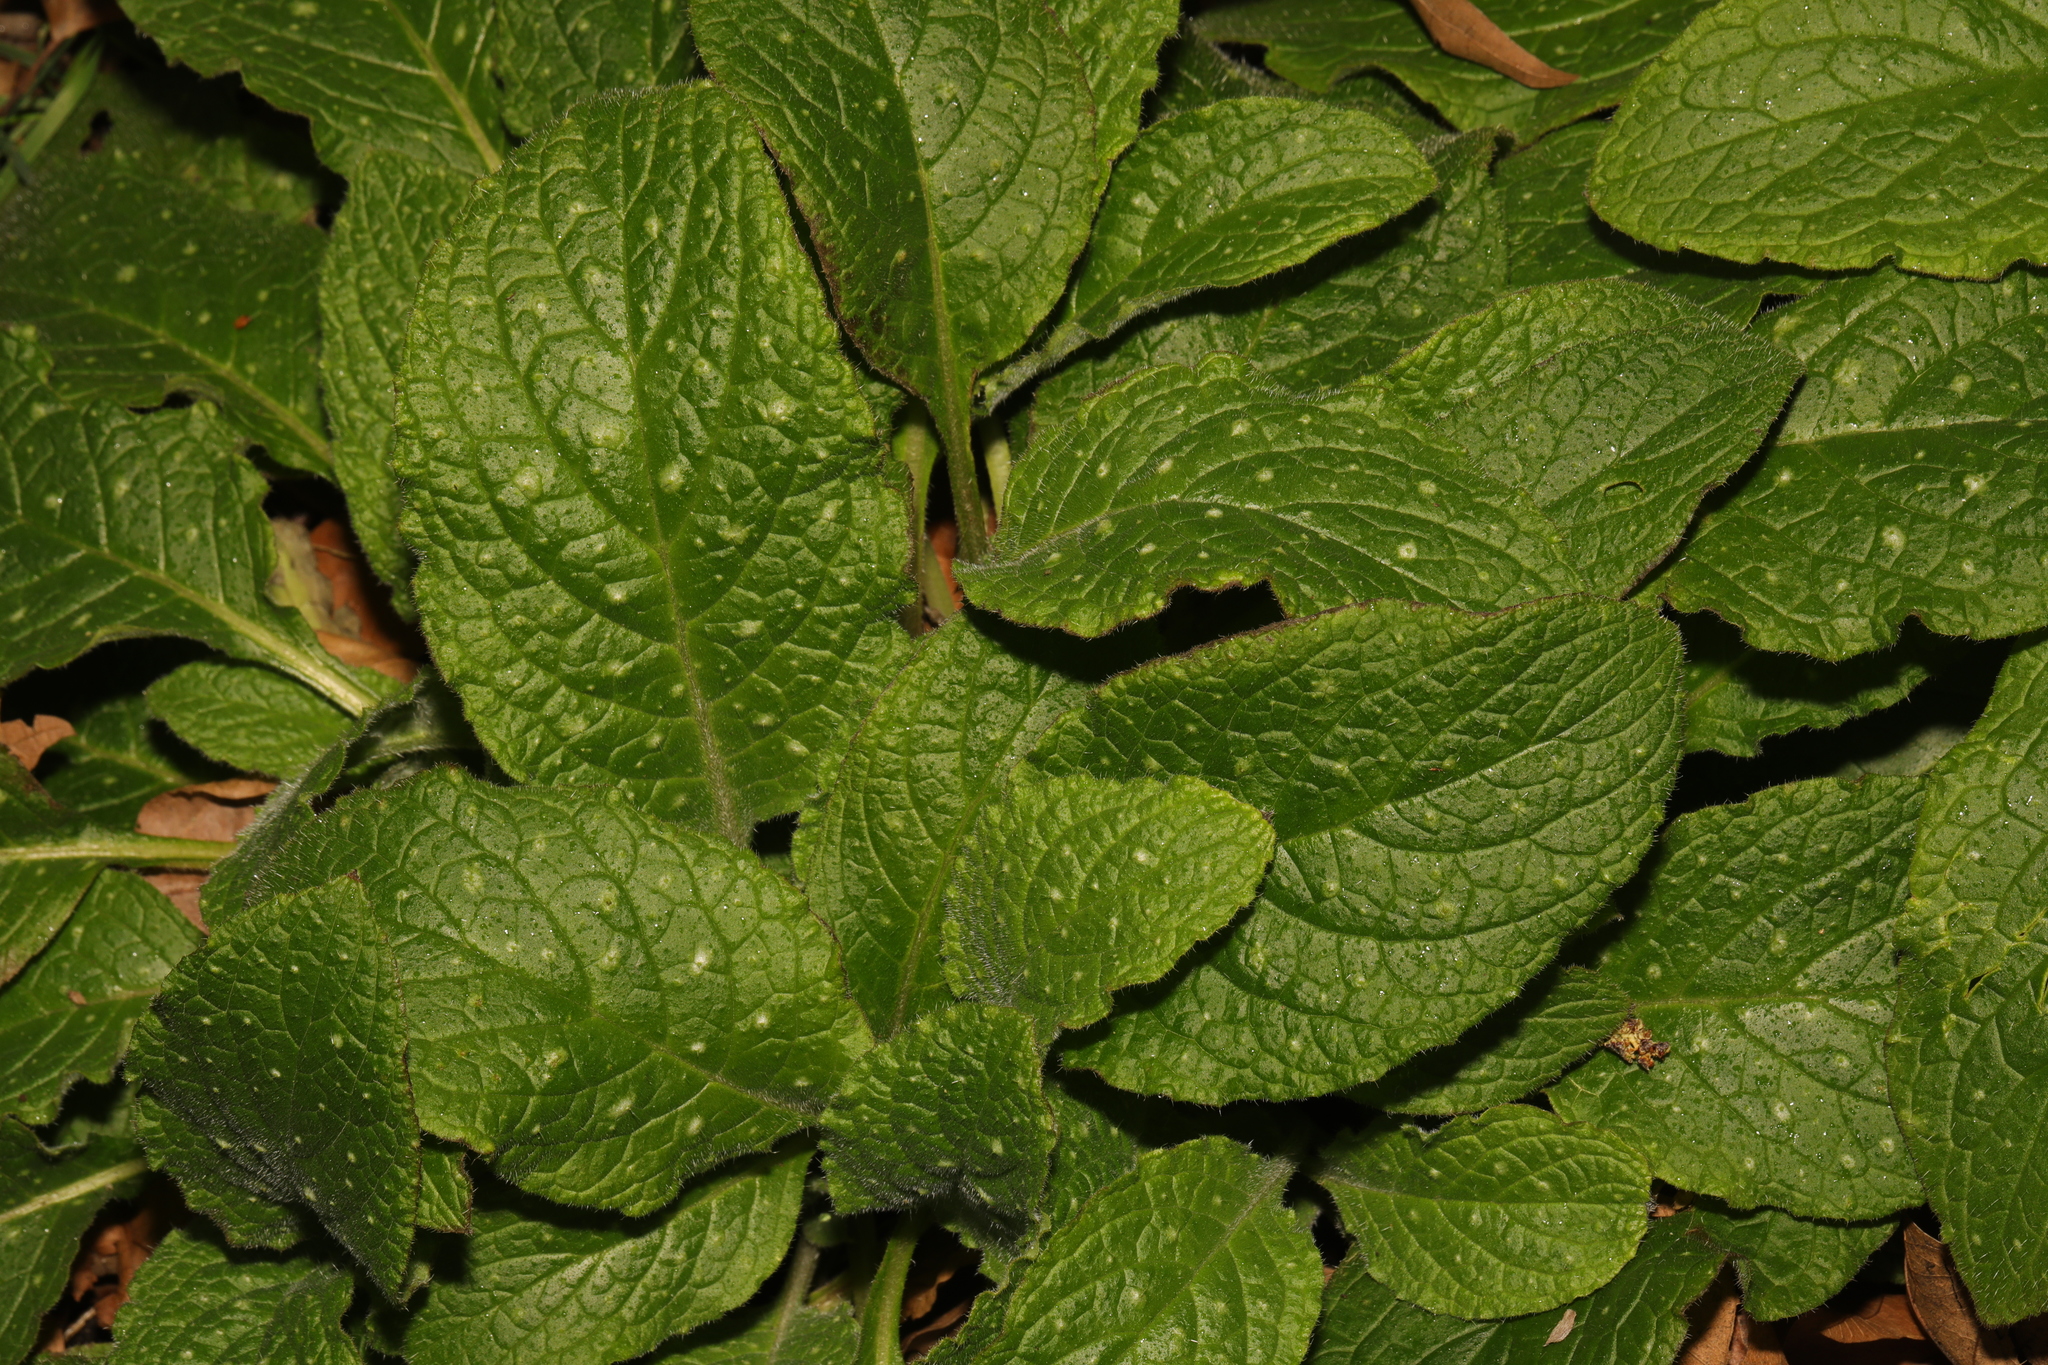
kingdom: Plantae
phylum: Tracheophyta
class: Magnoliopsida
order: Boraginales
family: Boraginaceae
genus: Pentaglottis
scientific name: Pentaglottis sempervirens
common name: Green alkanet
